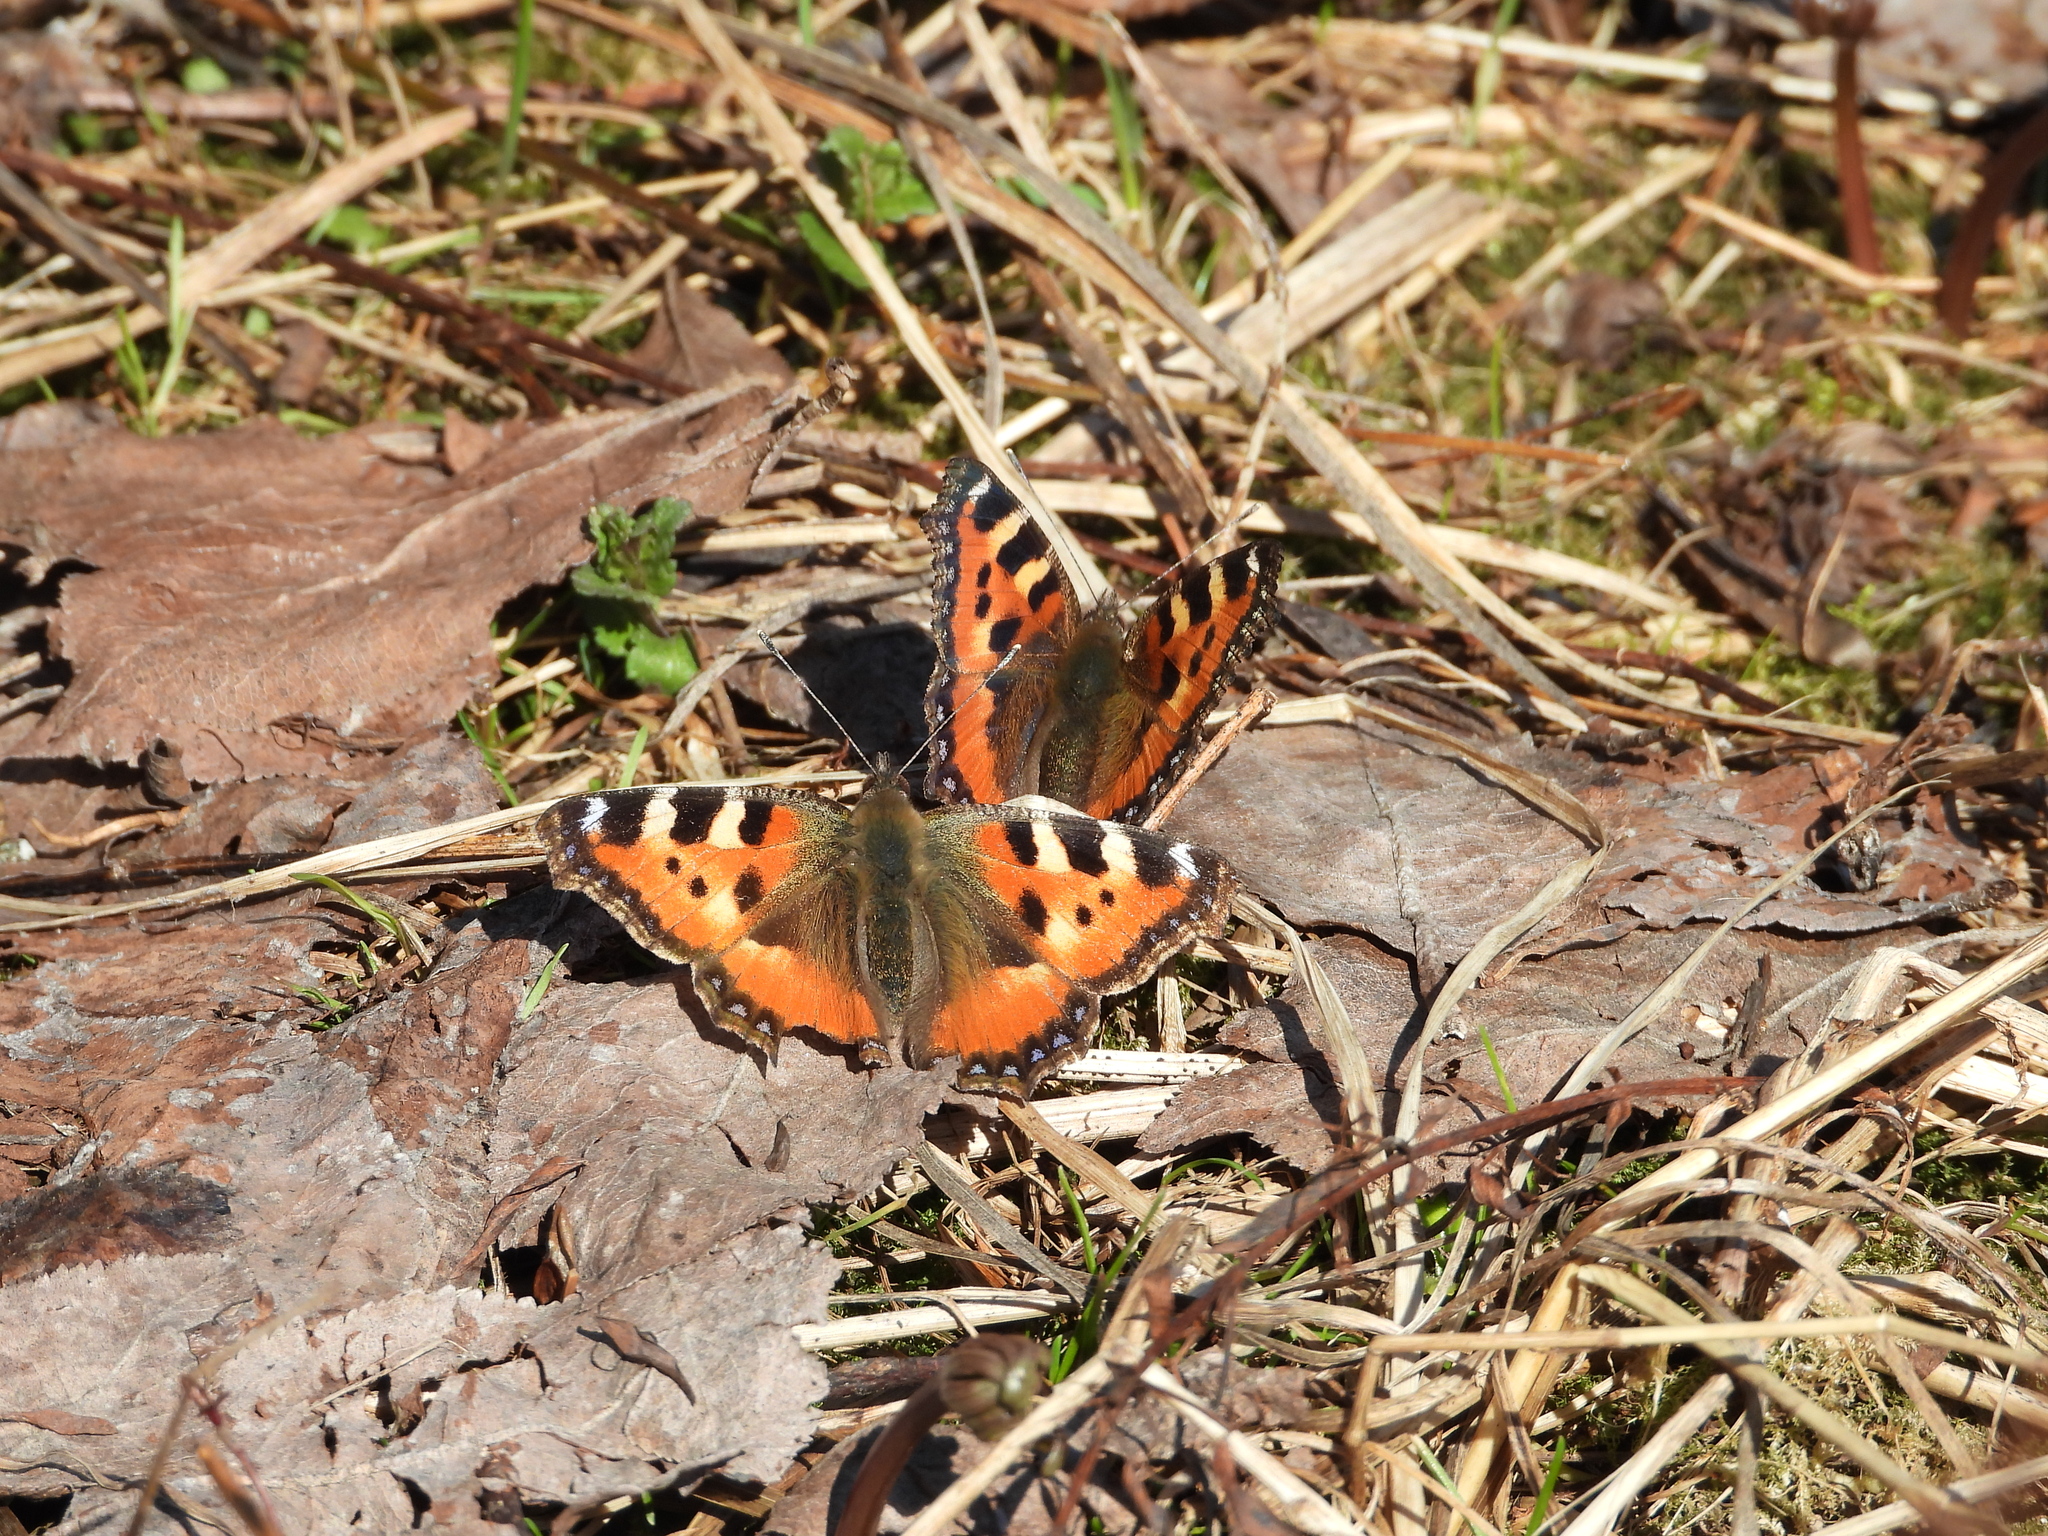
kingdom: Animalia
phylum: Arthropoda
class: Insecta
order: Lepidoptera
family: Nymphalidae
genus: Aglais
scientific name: Aglais urticae
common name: Small tortoiseshell
